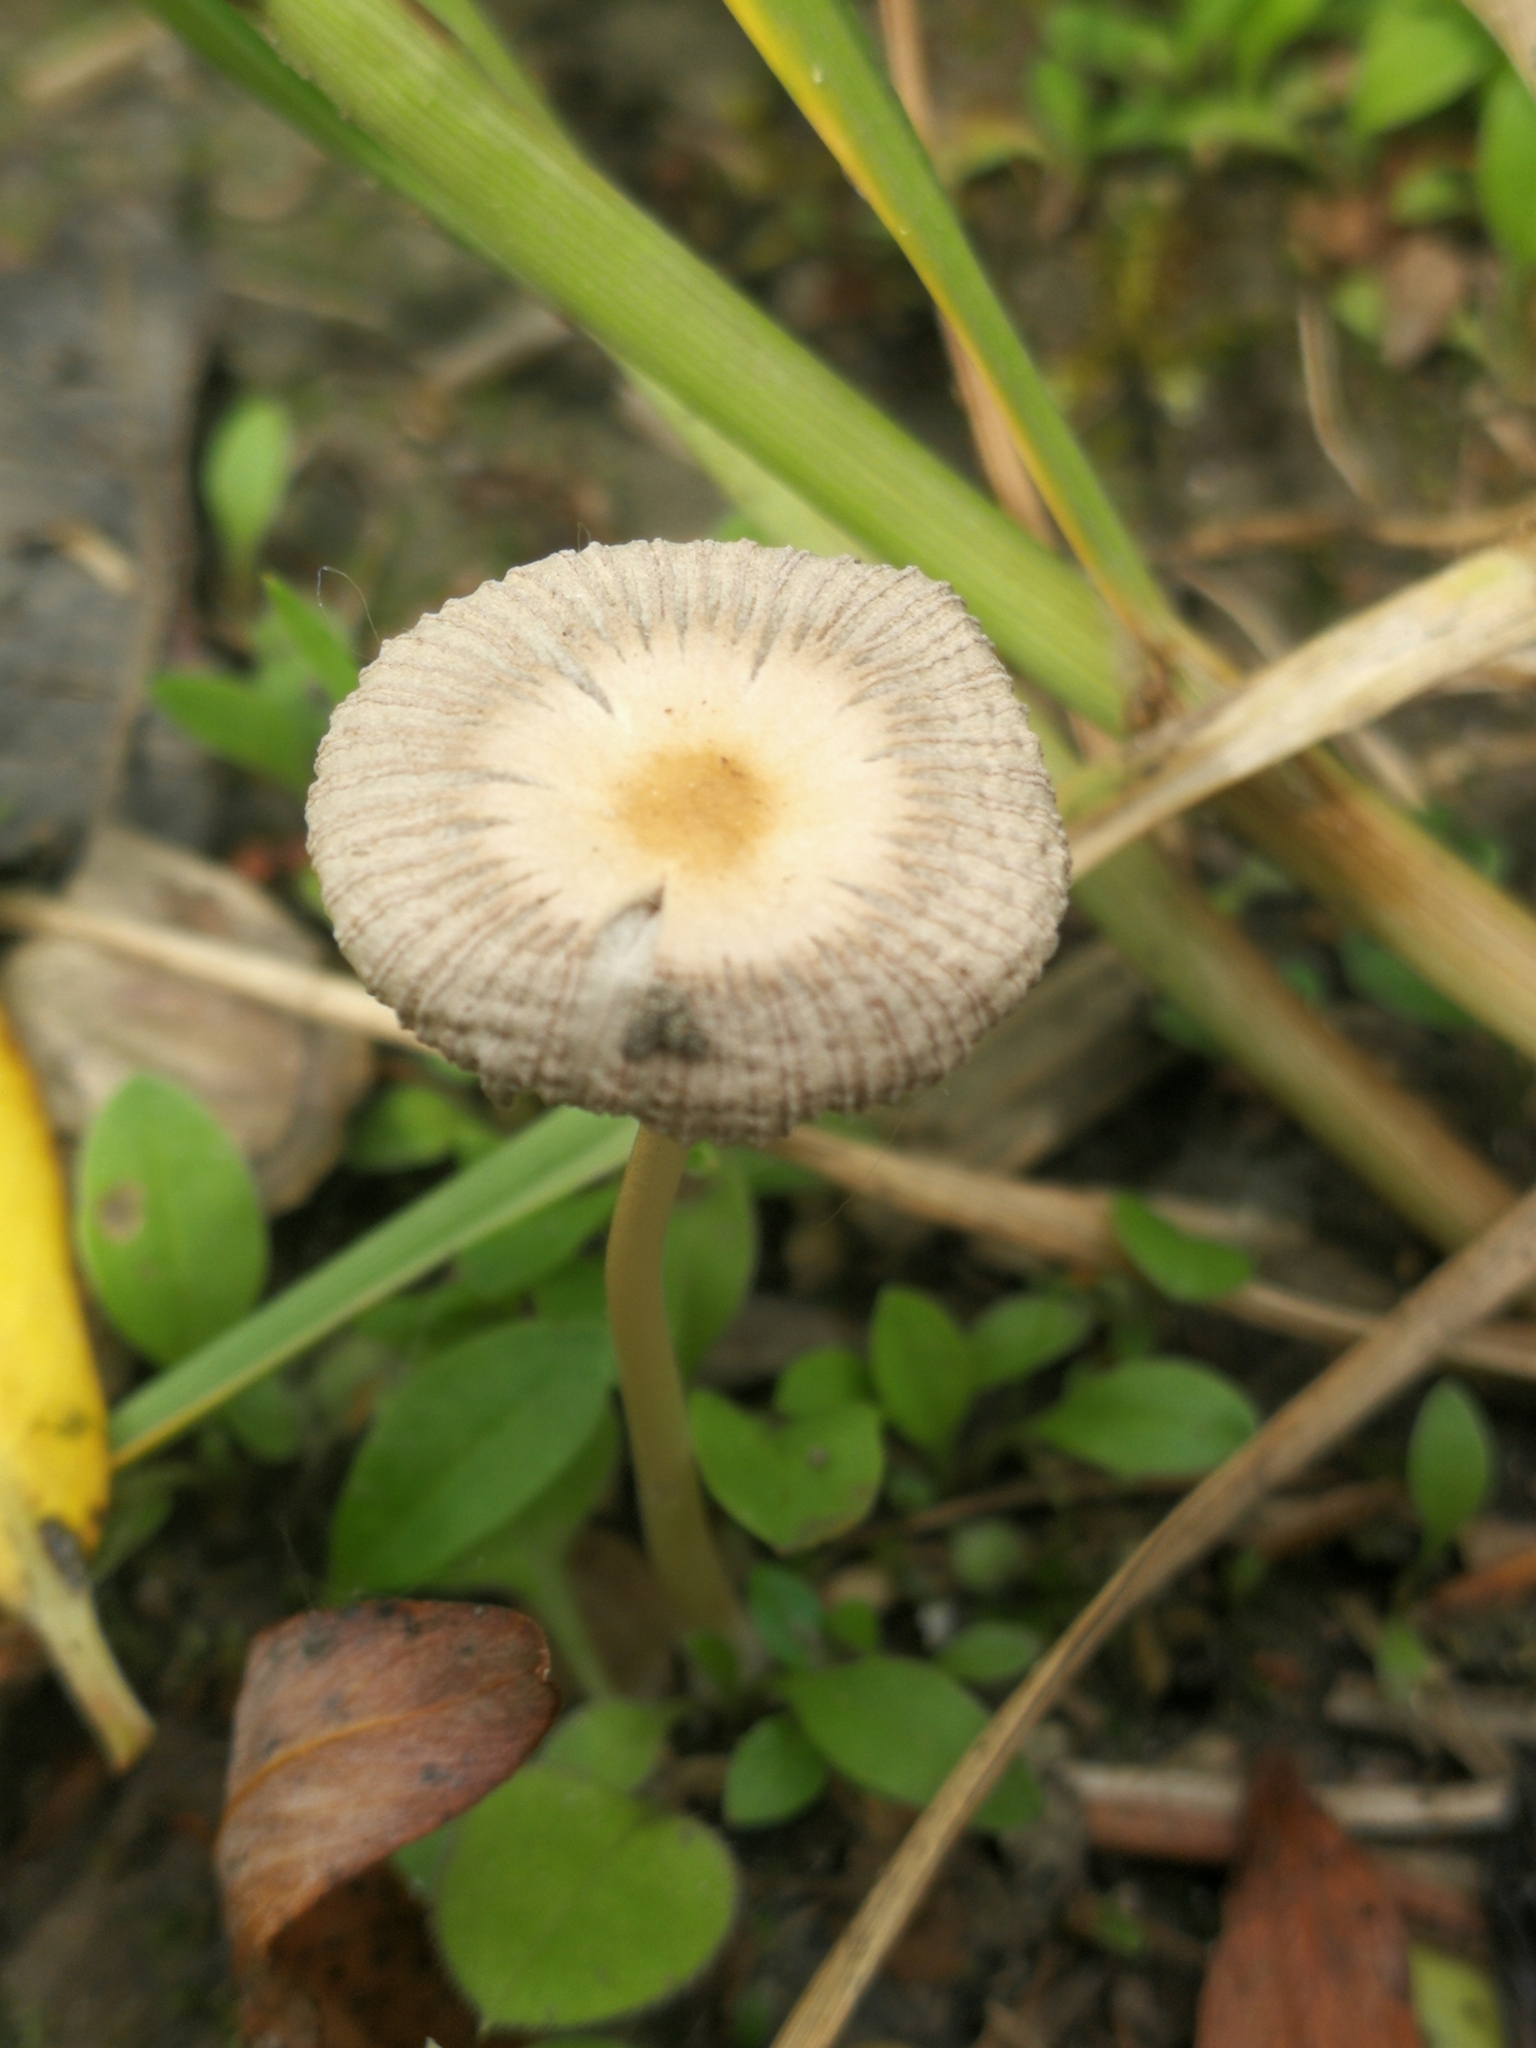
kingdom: Fungi
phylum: Basidiomycota
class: Agaricomycetes
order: Agaricales
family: Psathyrellaceae
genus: Parasola
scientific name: Parasola auricoma
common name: Goldenhaired inkcap
